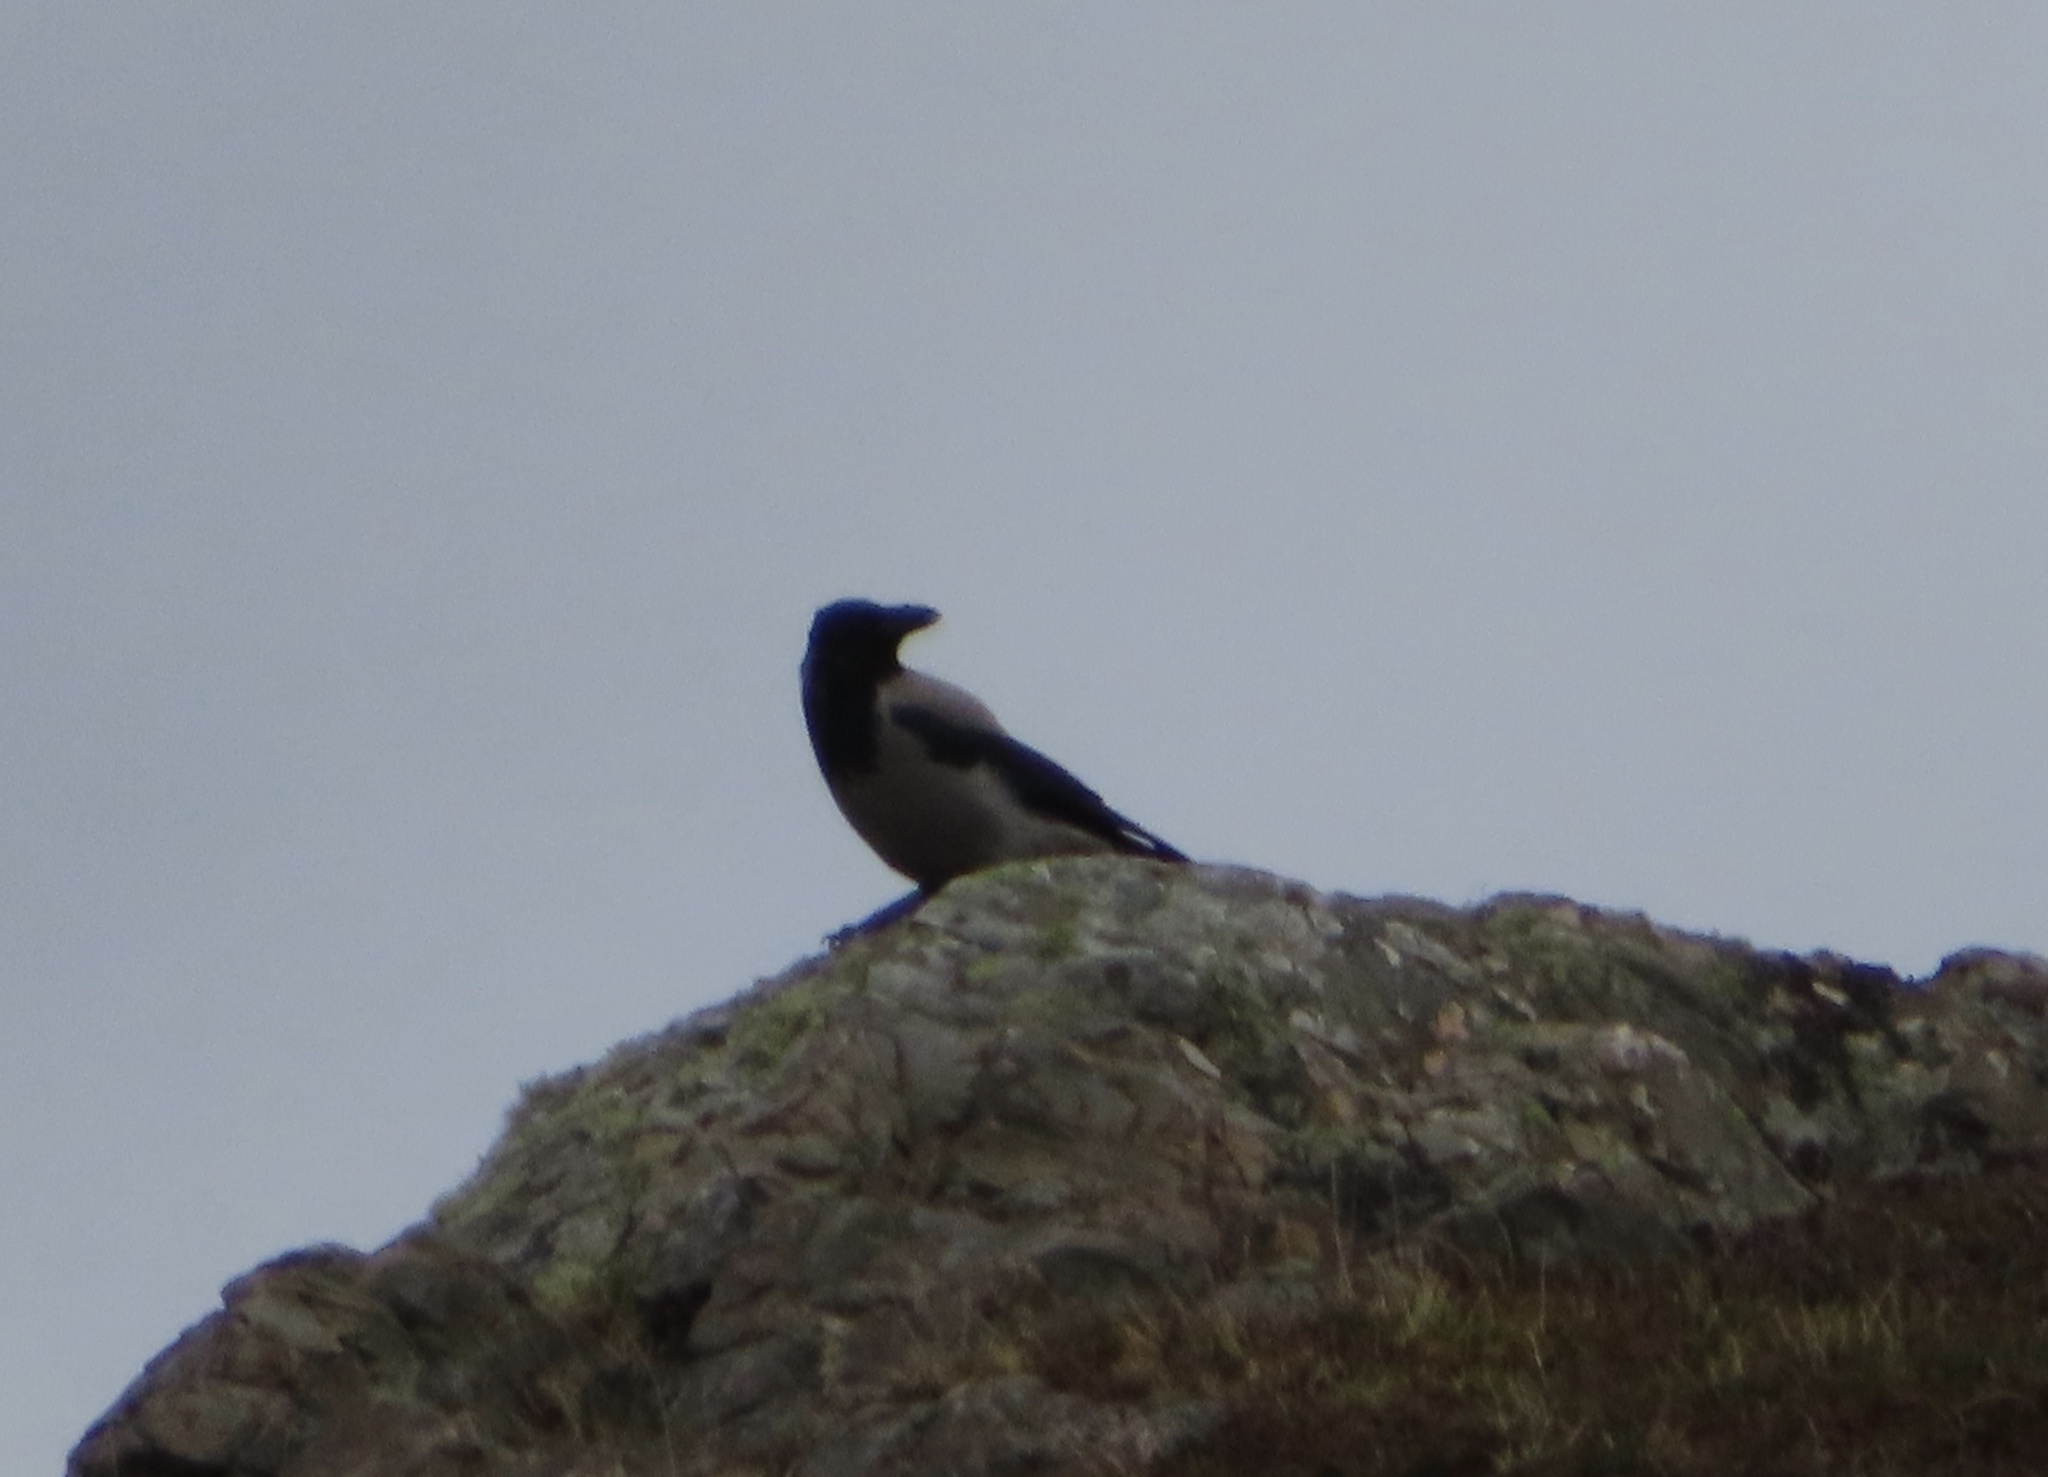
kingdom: Animalia
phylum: Chordata
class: Aves
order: Passeriformes
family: Corvidae
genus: Corvus
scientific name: Corvus cornix
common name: Hooded crow
